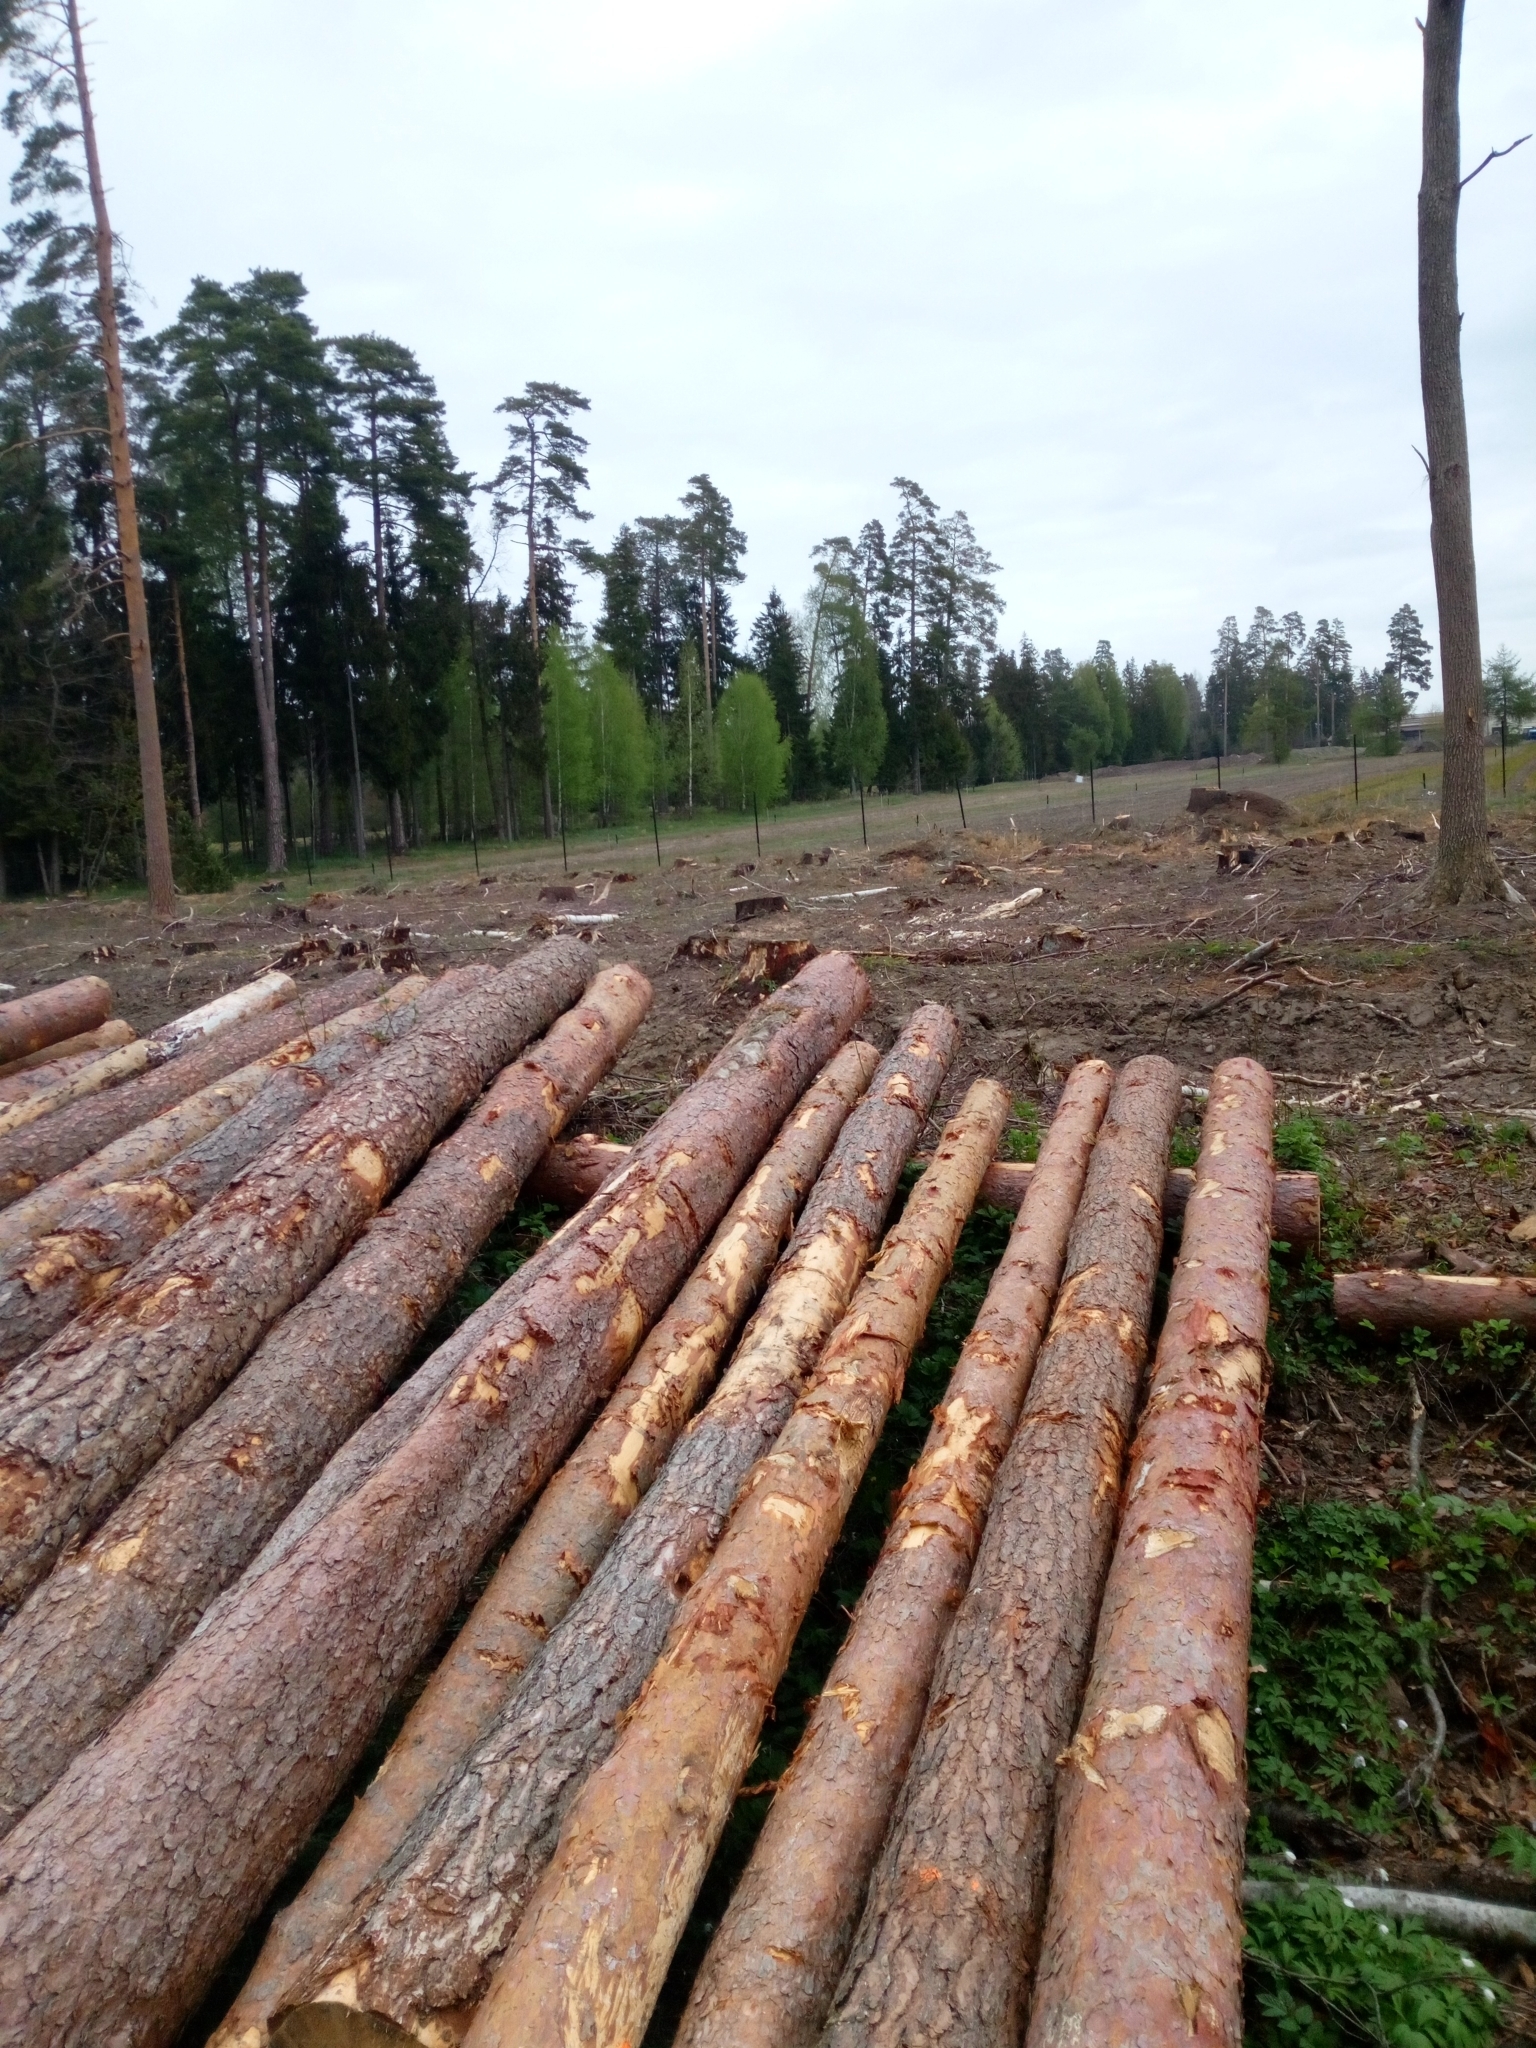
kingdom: Plantae
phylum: Tracheophyta
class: Pinopsida
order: Pinales
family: Pinaceae
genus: Pinus
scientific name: Pinus sylvestris
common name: Scots pine
